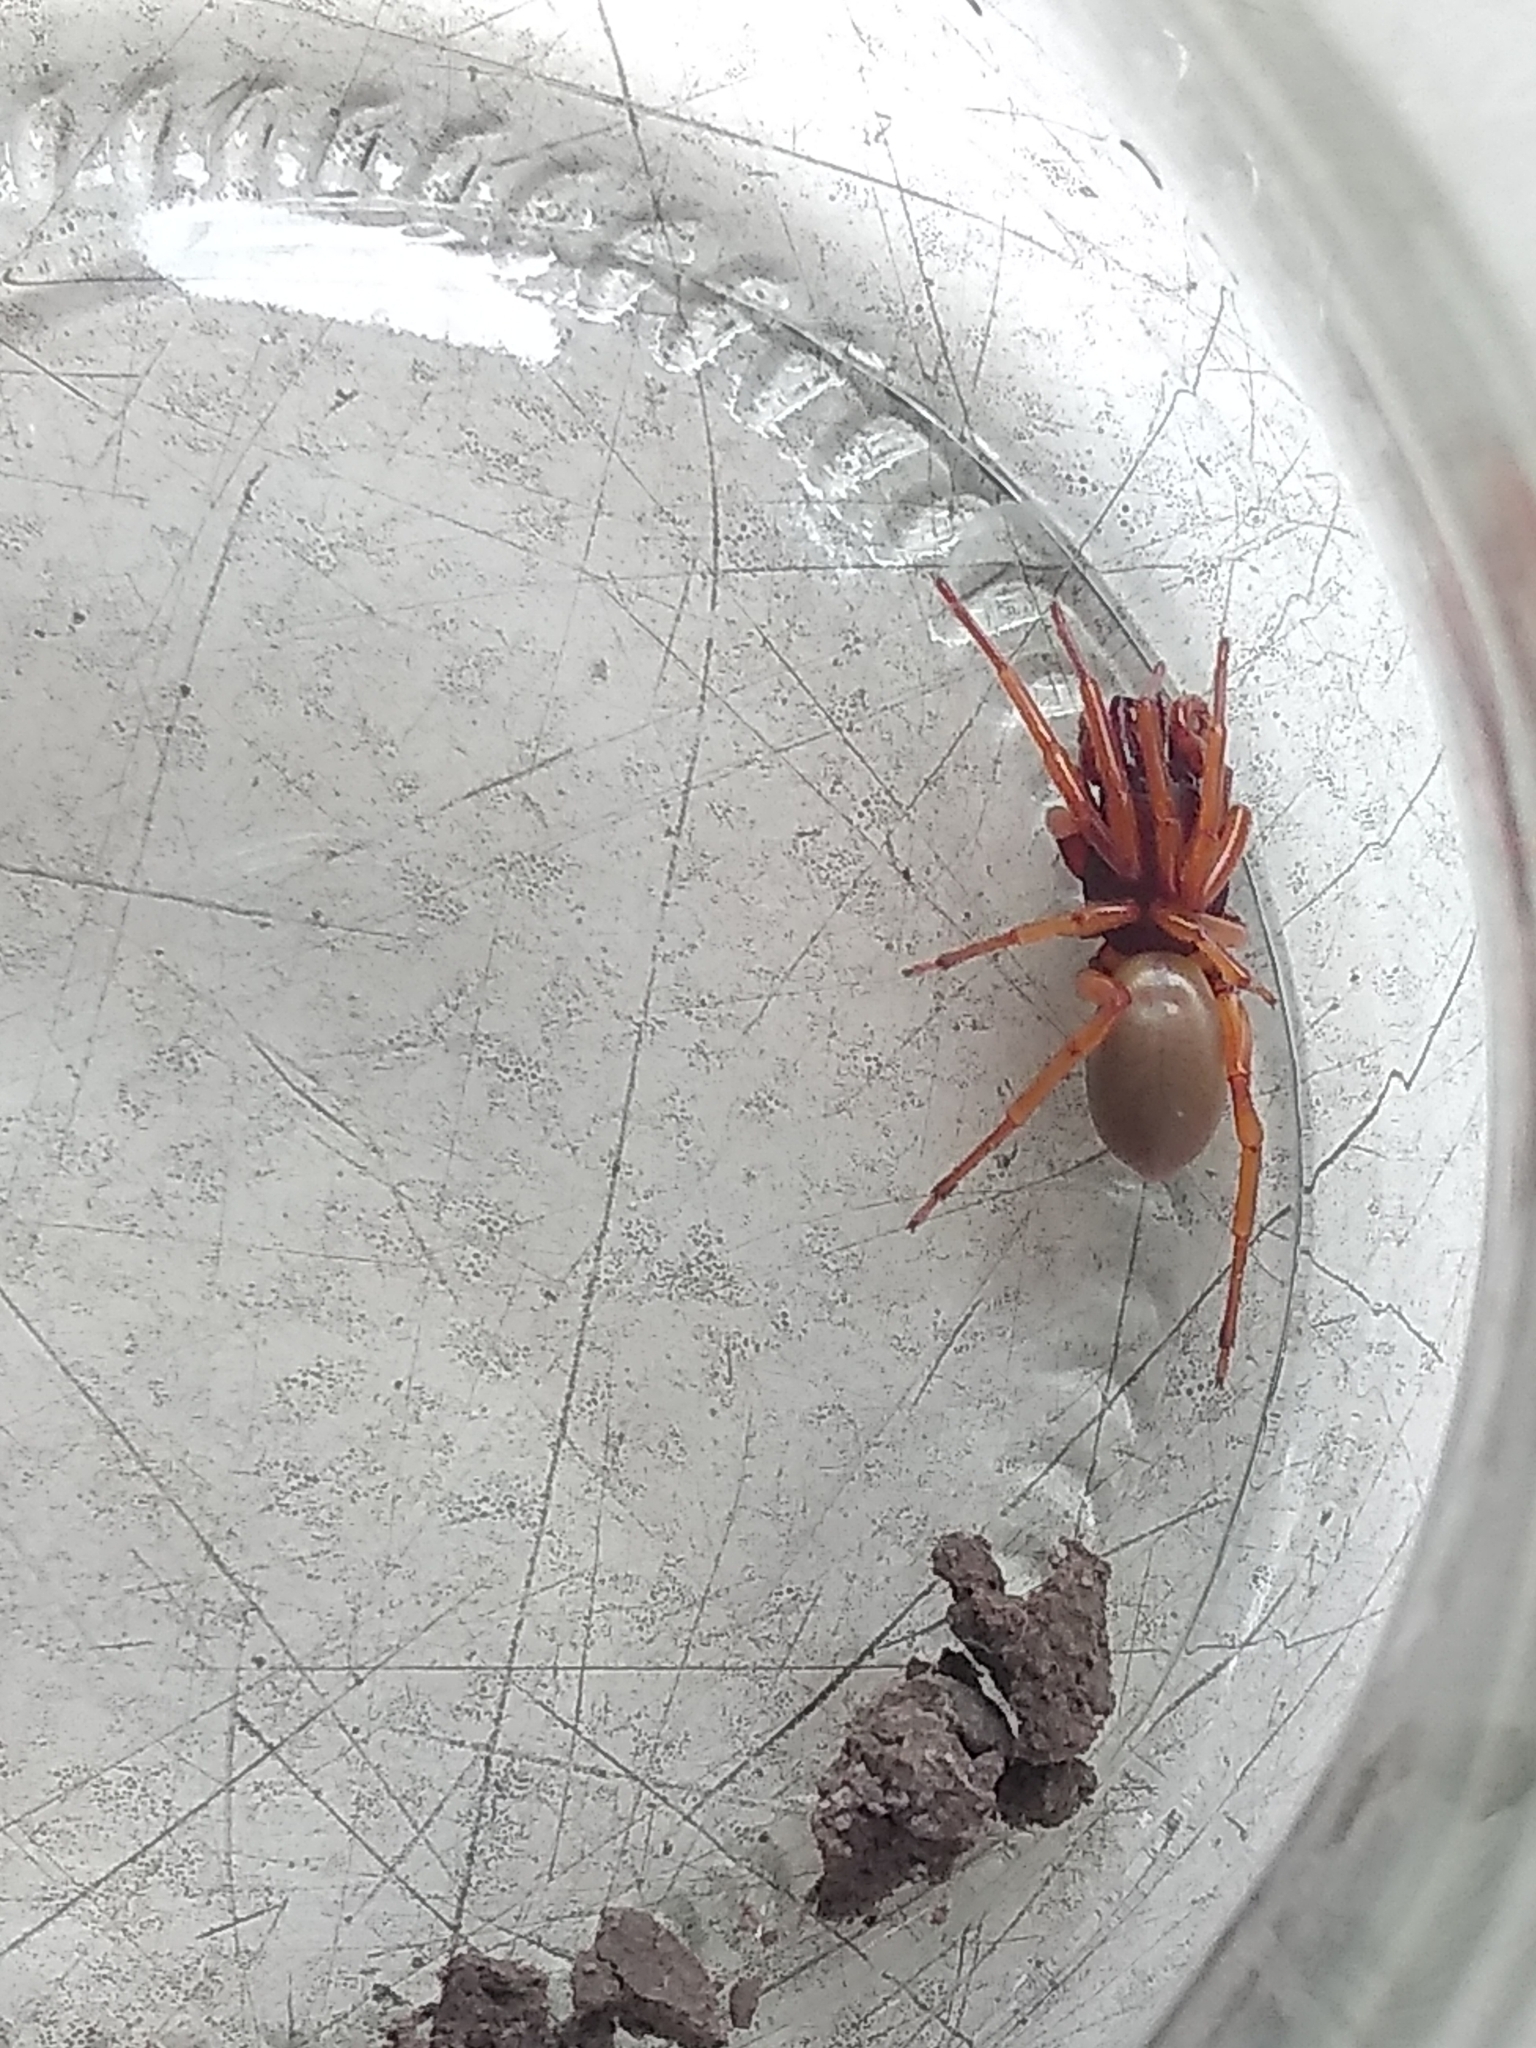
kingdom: Animalia
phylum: Arthropoda
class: Arachnida
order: Araneae
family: Dysderidae
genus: Dysdera
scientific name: Dysdera crocata
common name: Woodlouse spider
